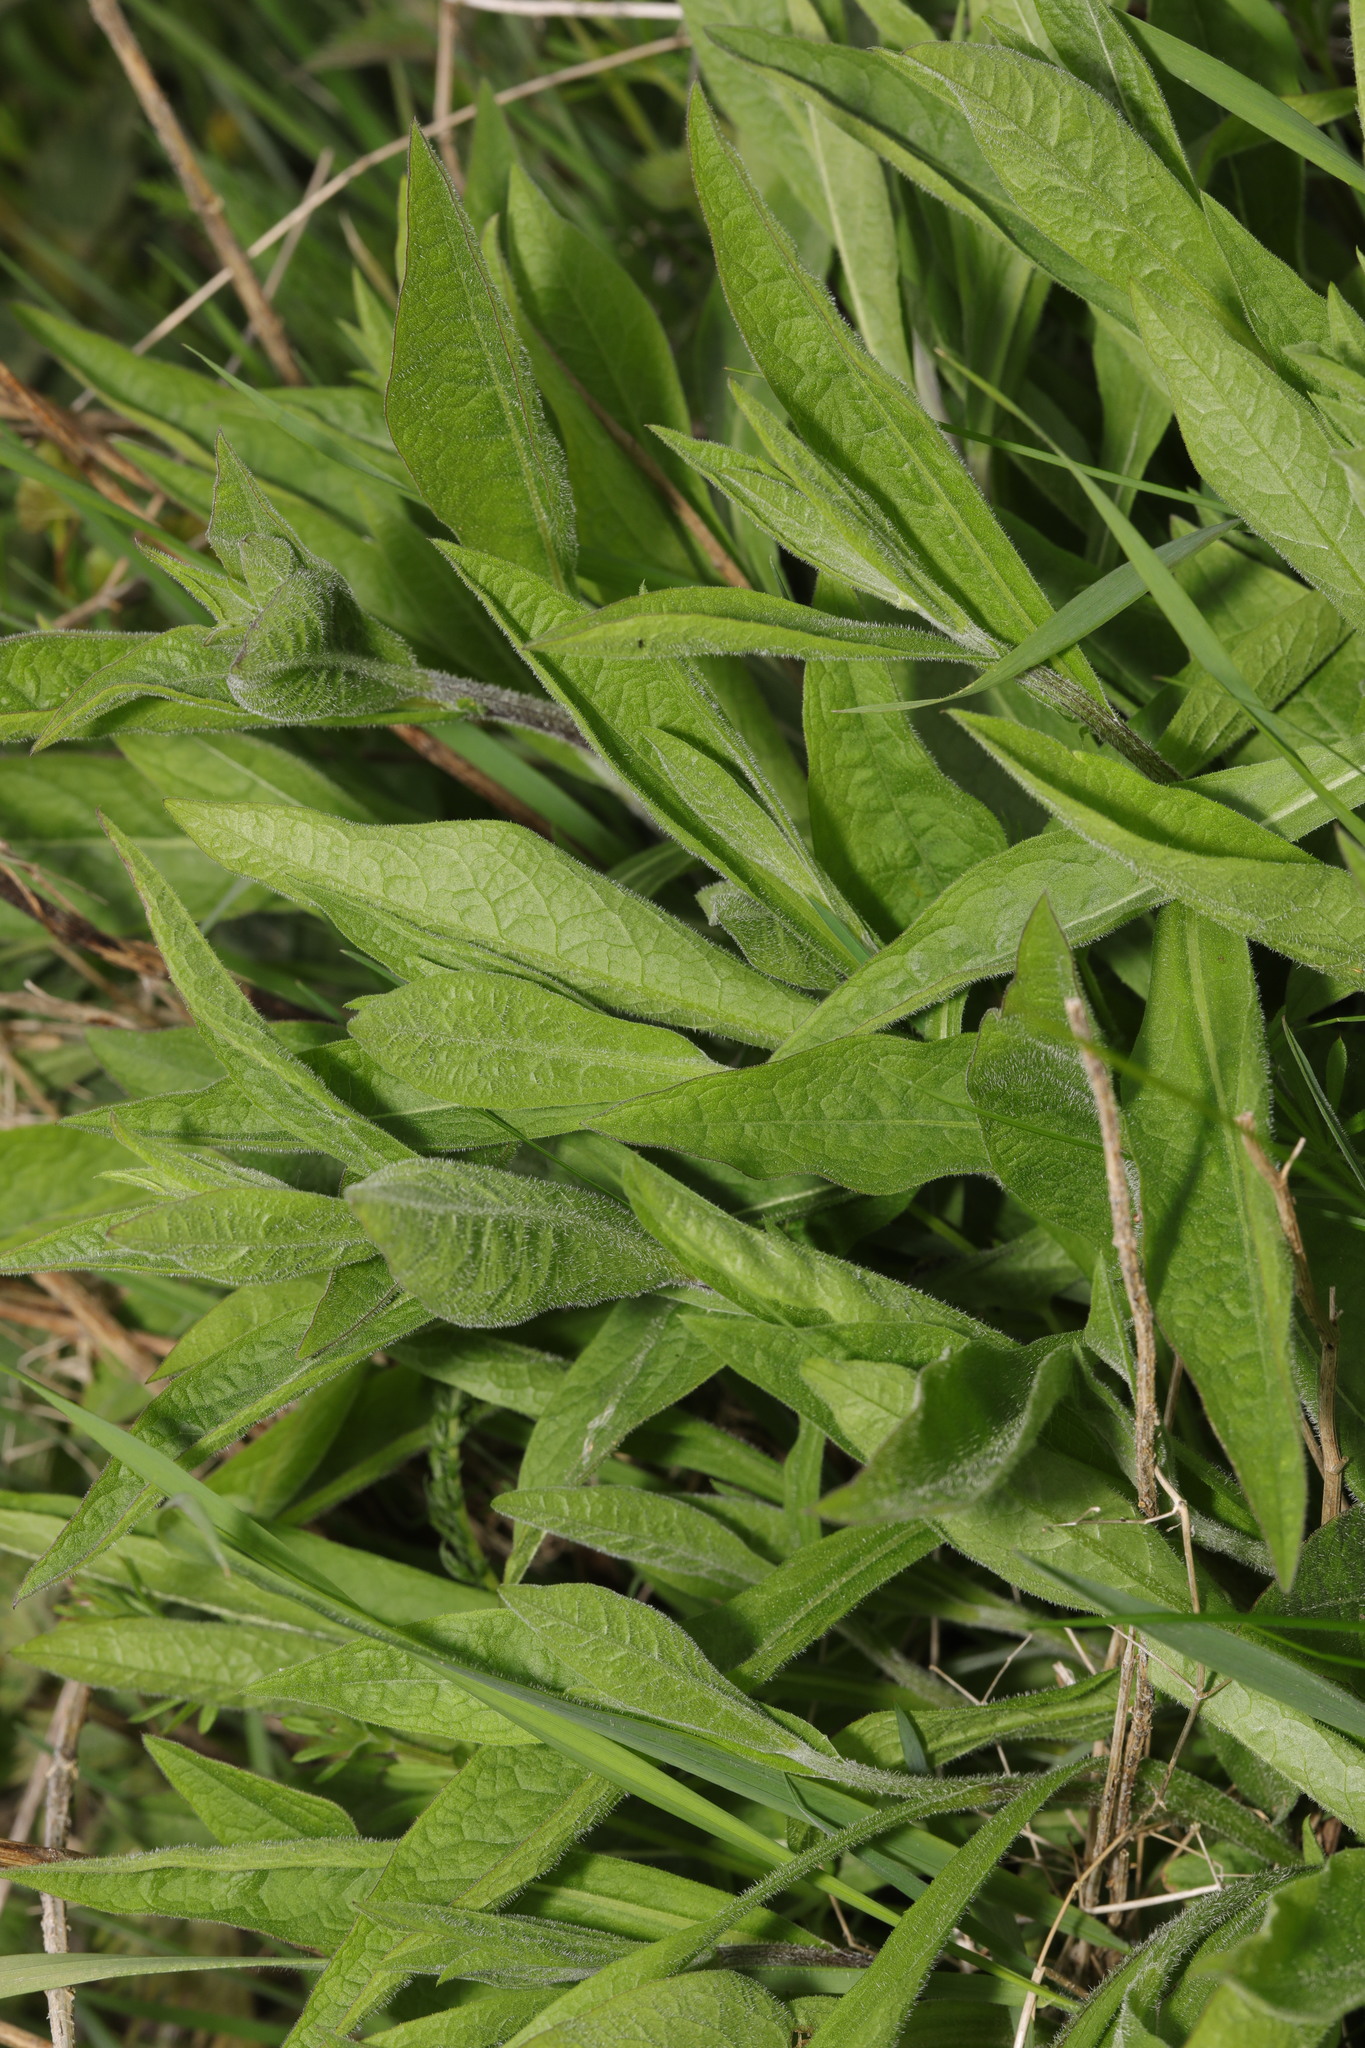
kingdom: Plantae
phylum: Tracheophyta
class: Magnoliopsida
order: Asterales
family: Asteraceae
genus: Centaurea
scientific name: Centaurea nigra
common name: Lesser knapweed
